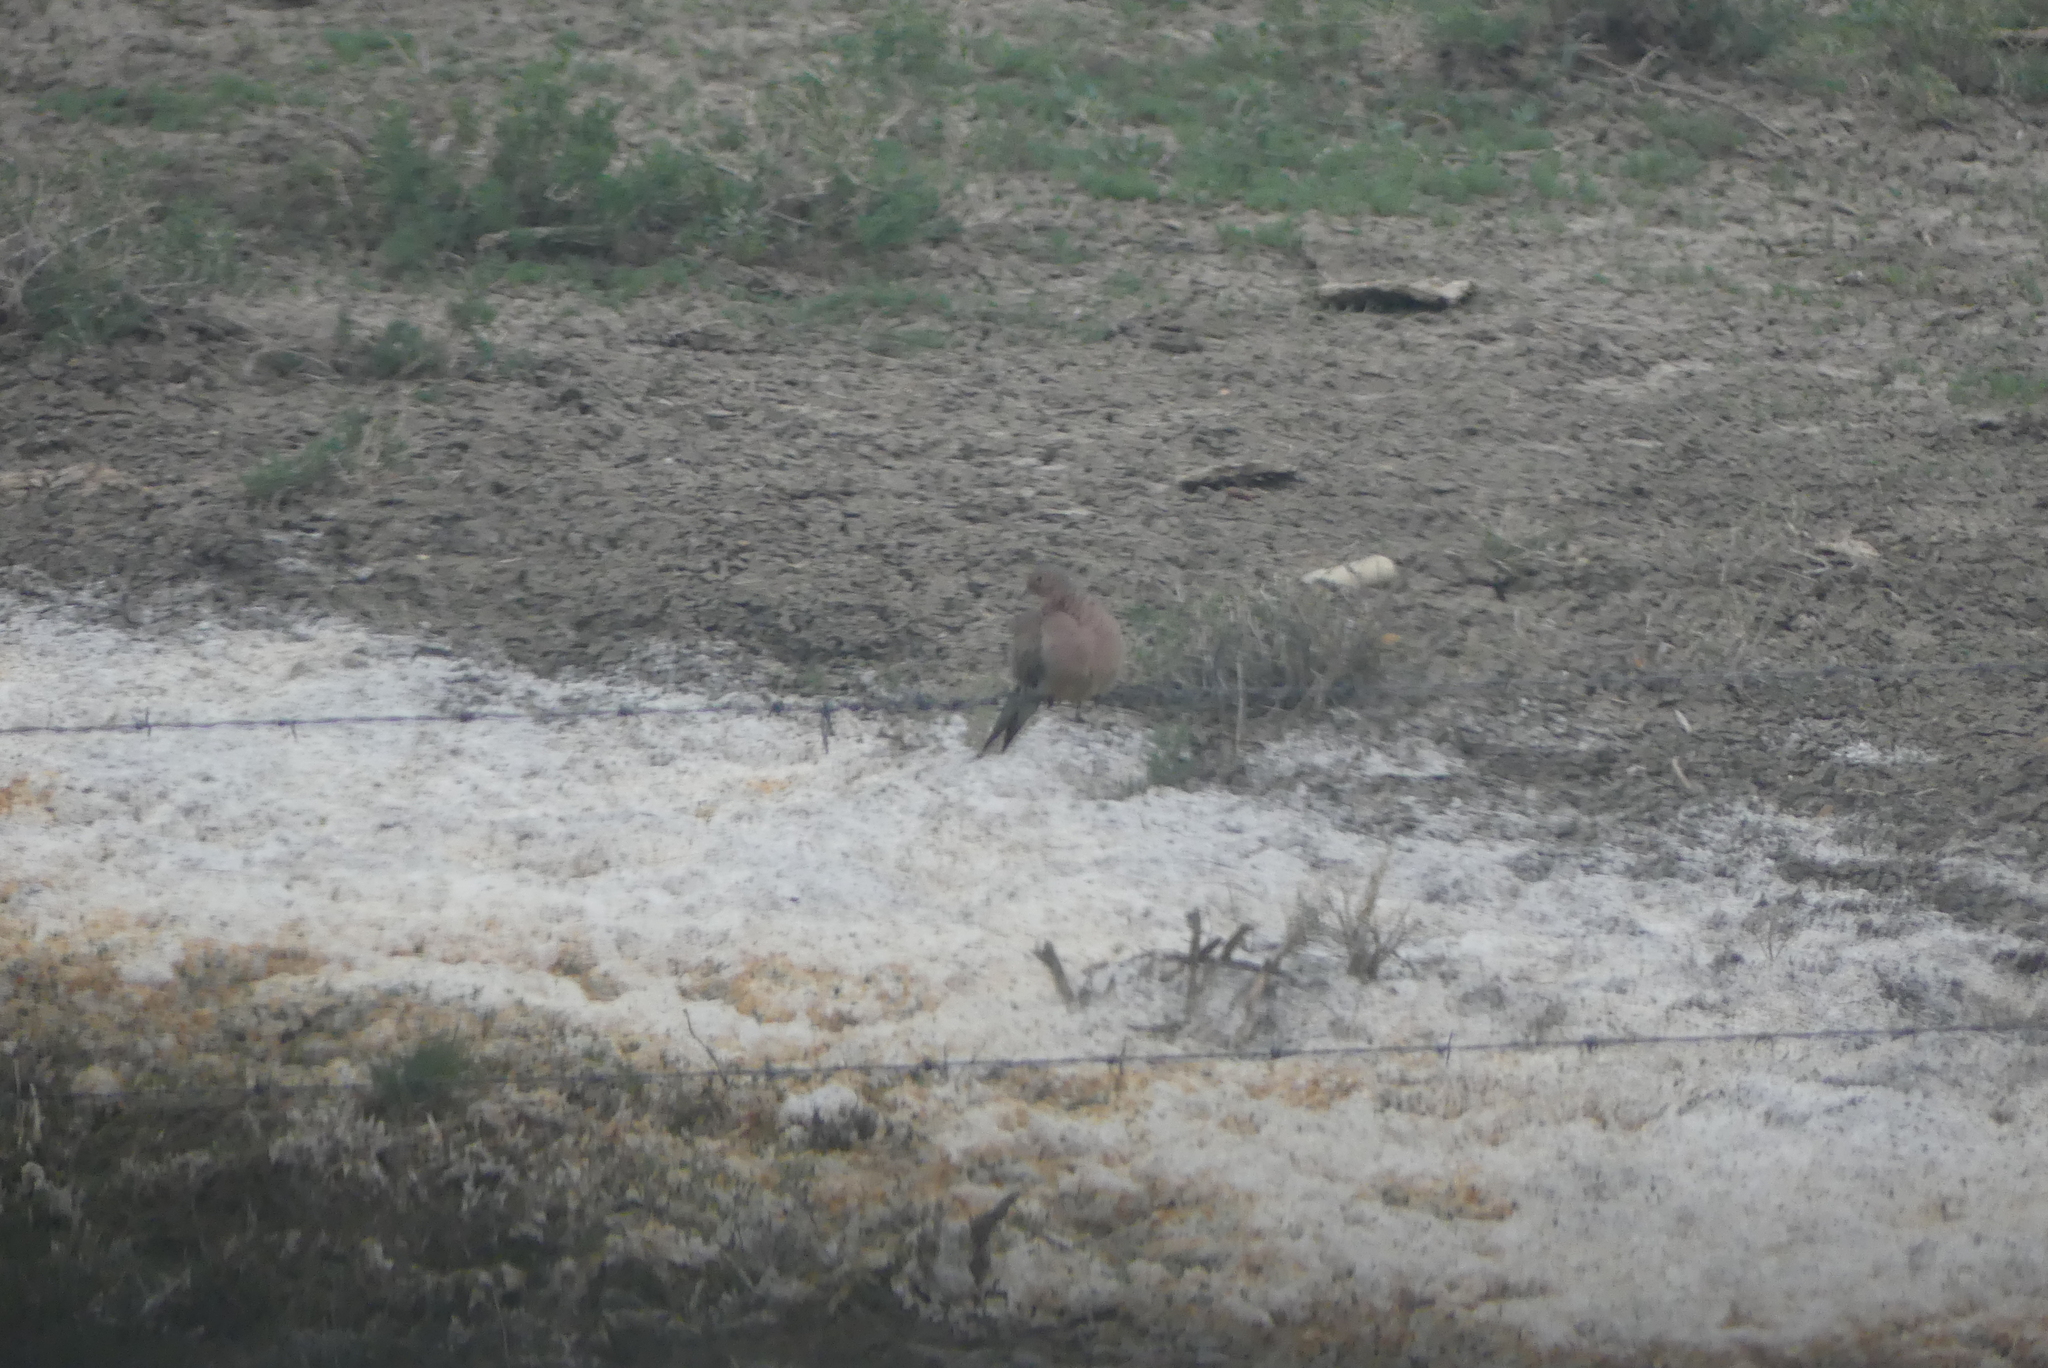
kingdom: Animalia
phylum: Chordata
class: Aves
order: Columbiformes
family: Columbidae
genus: Zenaida
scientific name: Zenaida macroura
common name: Mourning dove
